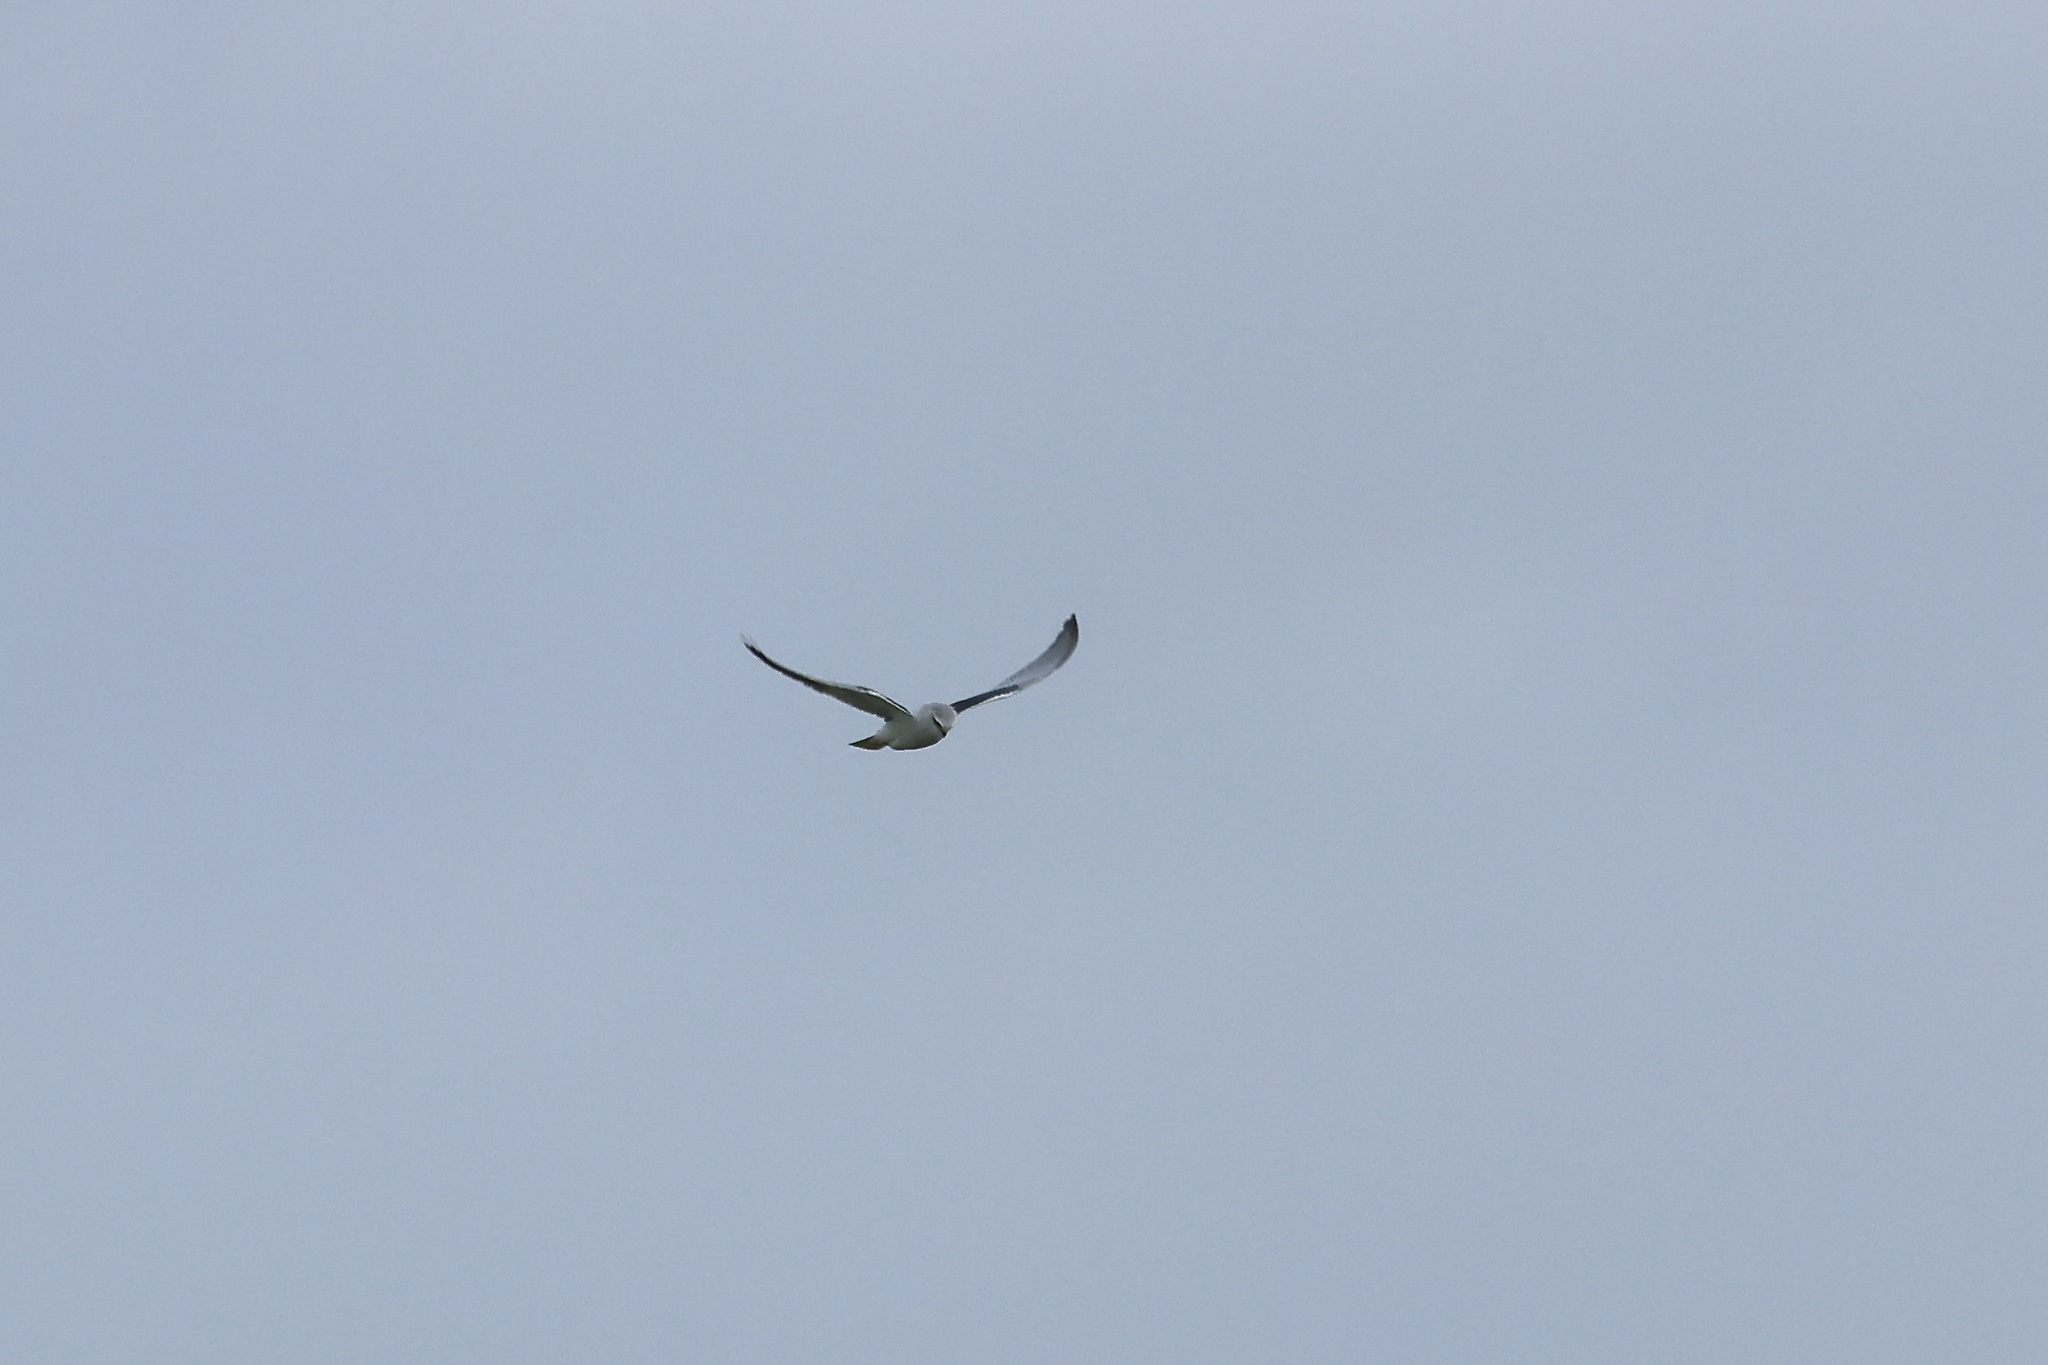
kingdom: Animalia
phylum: Chordata
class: Aves
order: Accipitriformes
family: Accipitridae
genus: Elanus
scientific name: Elanus caeruleus
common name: Black-winged kite
